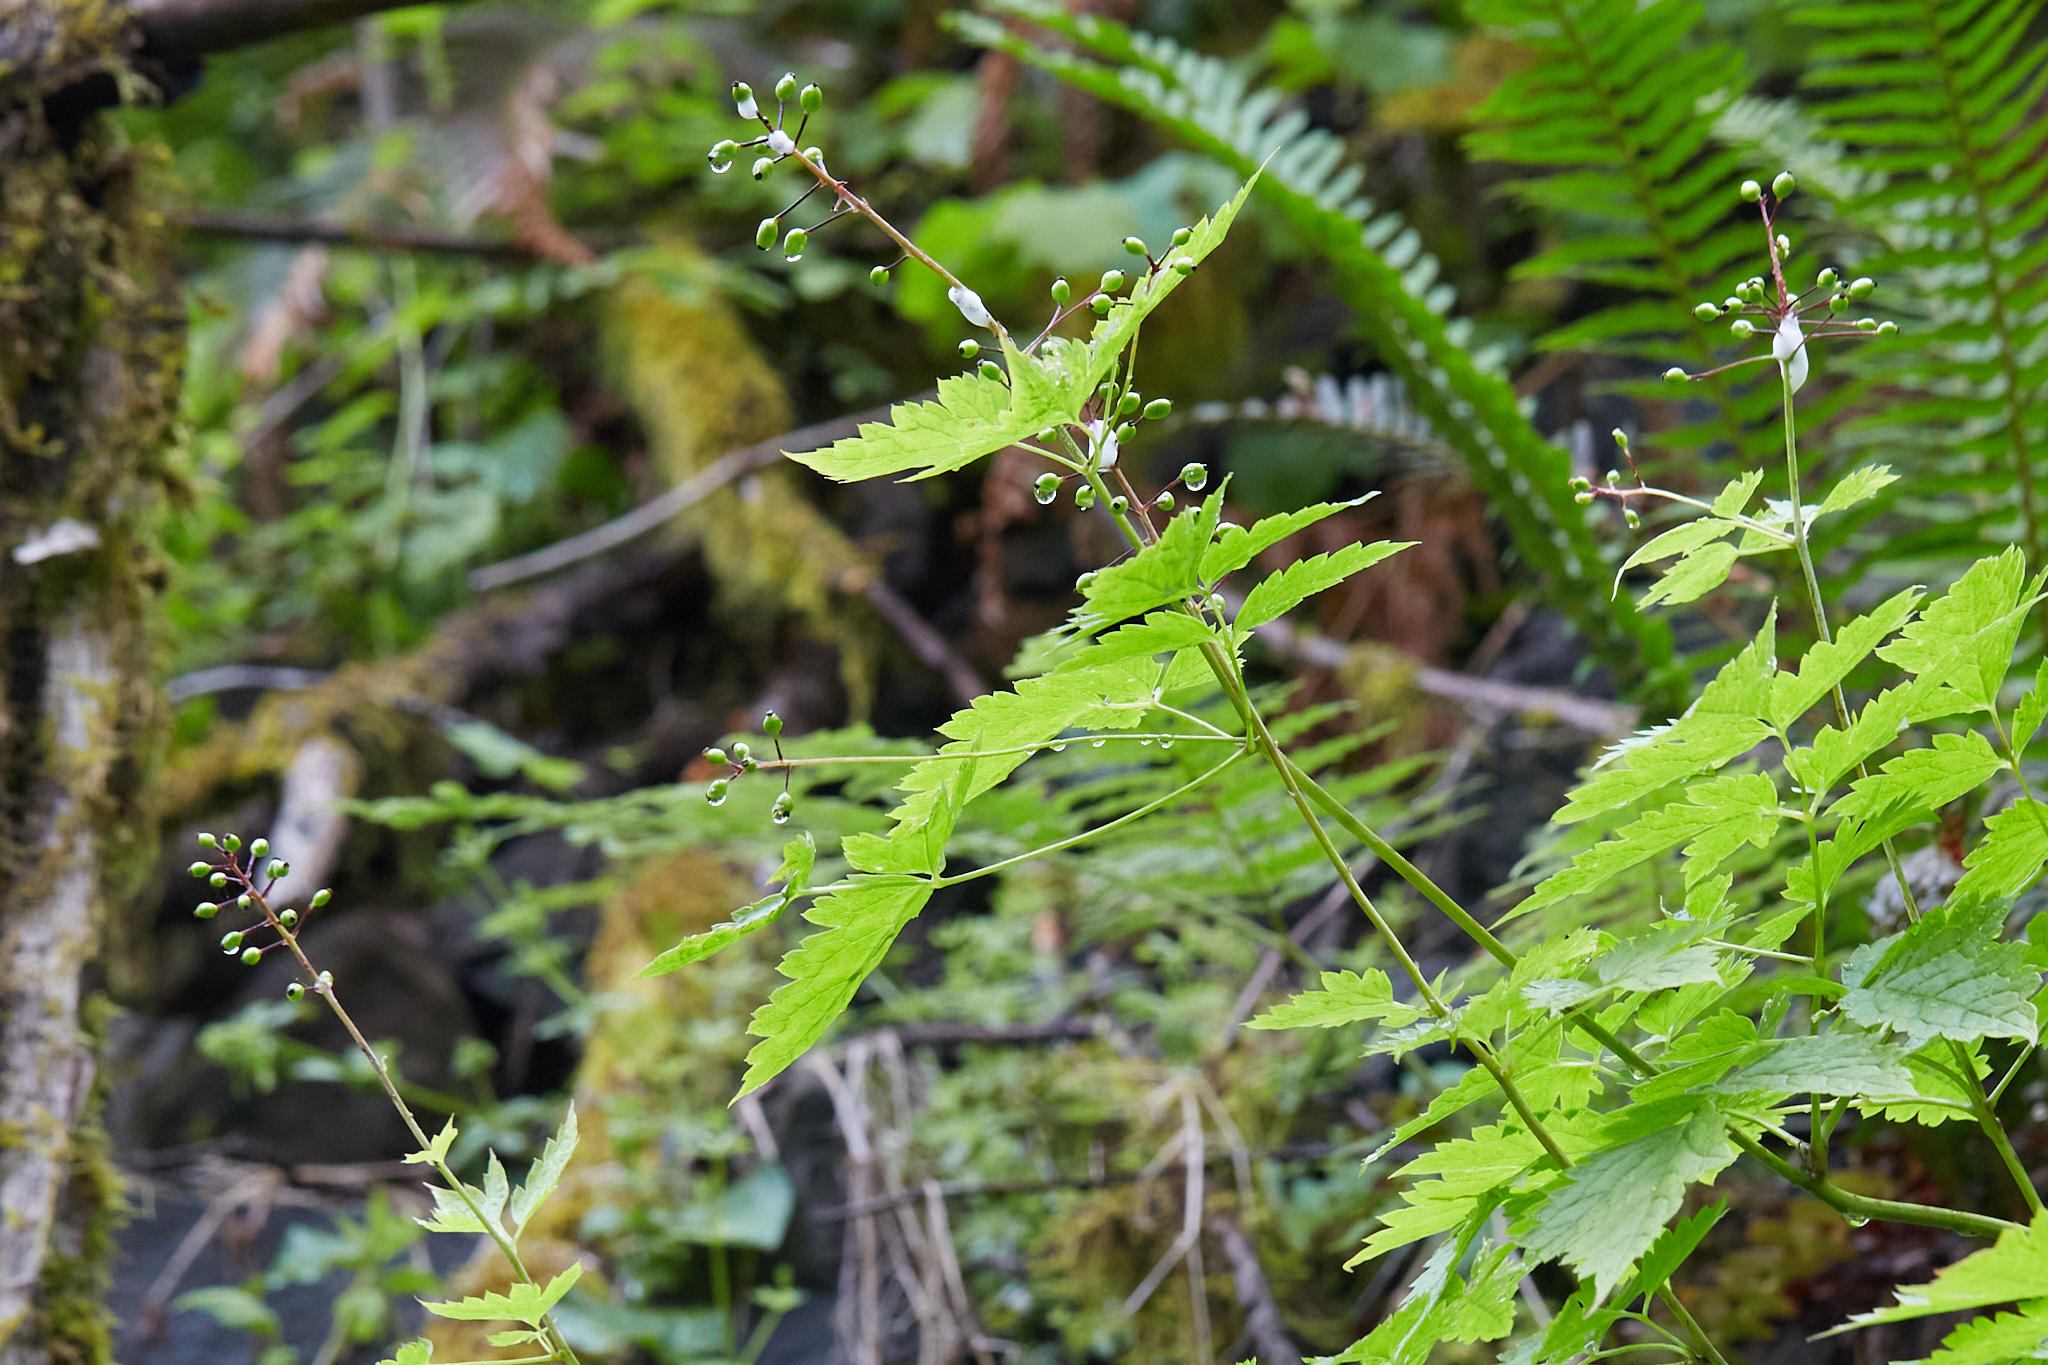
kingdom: Plantae
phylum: Tracheophyta
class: Magnoliopsida
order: Ranunculales
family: Ranunculaceae
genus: Actaea
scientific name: Actaea rubra
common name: Red baneberry
